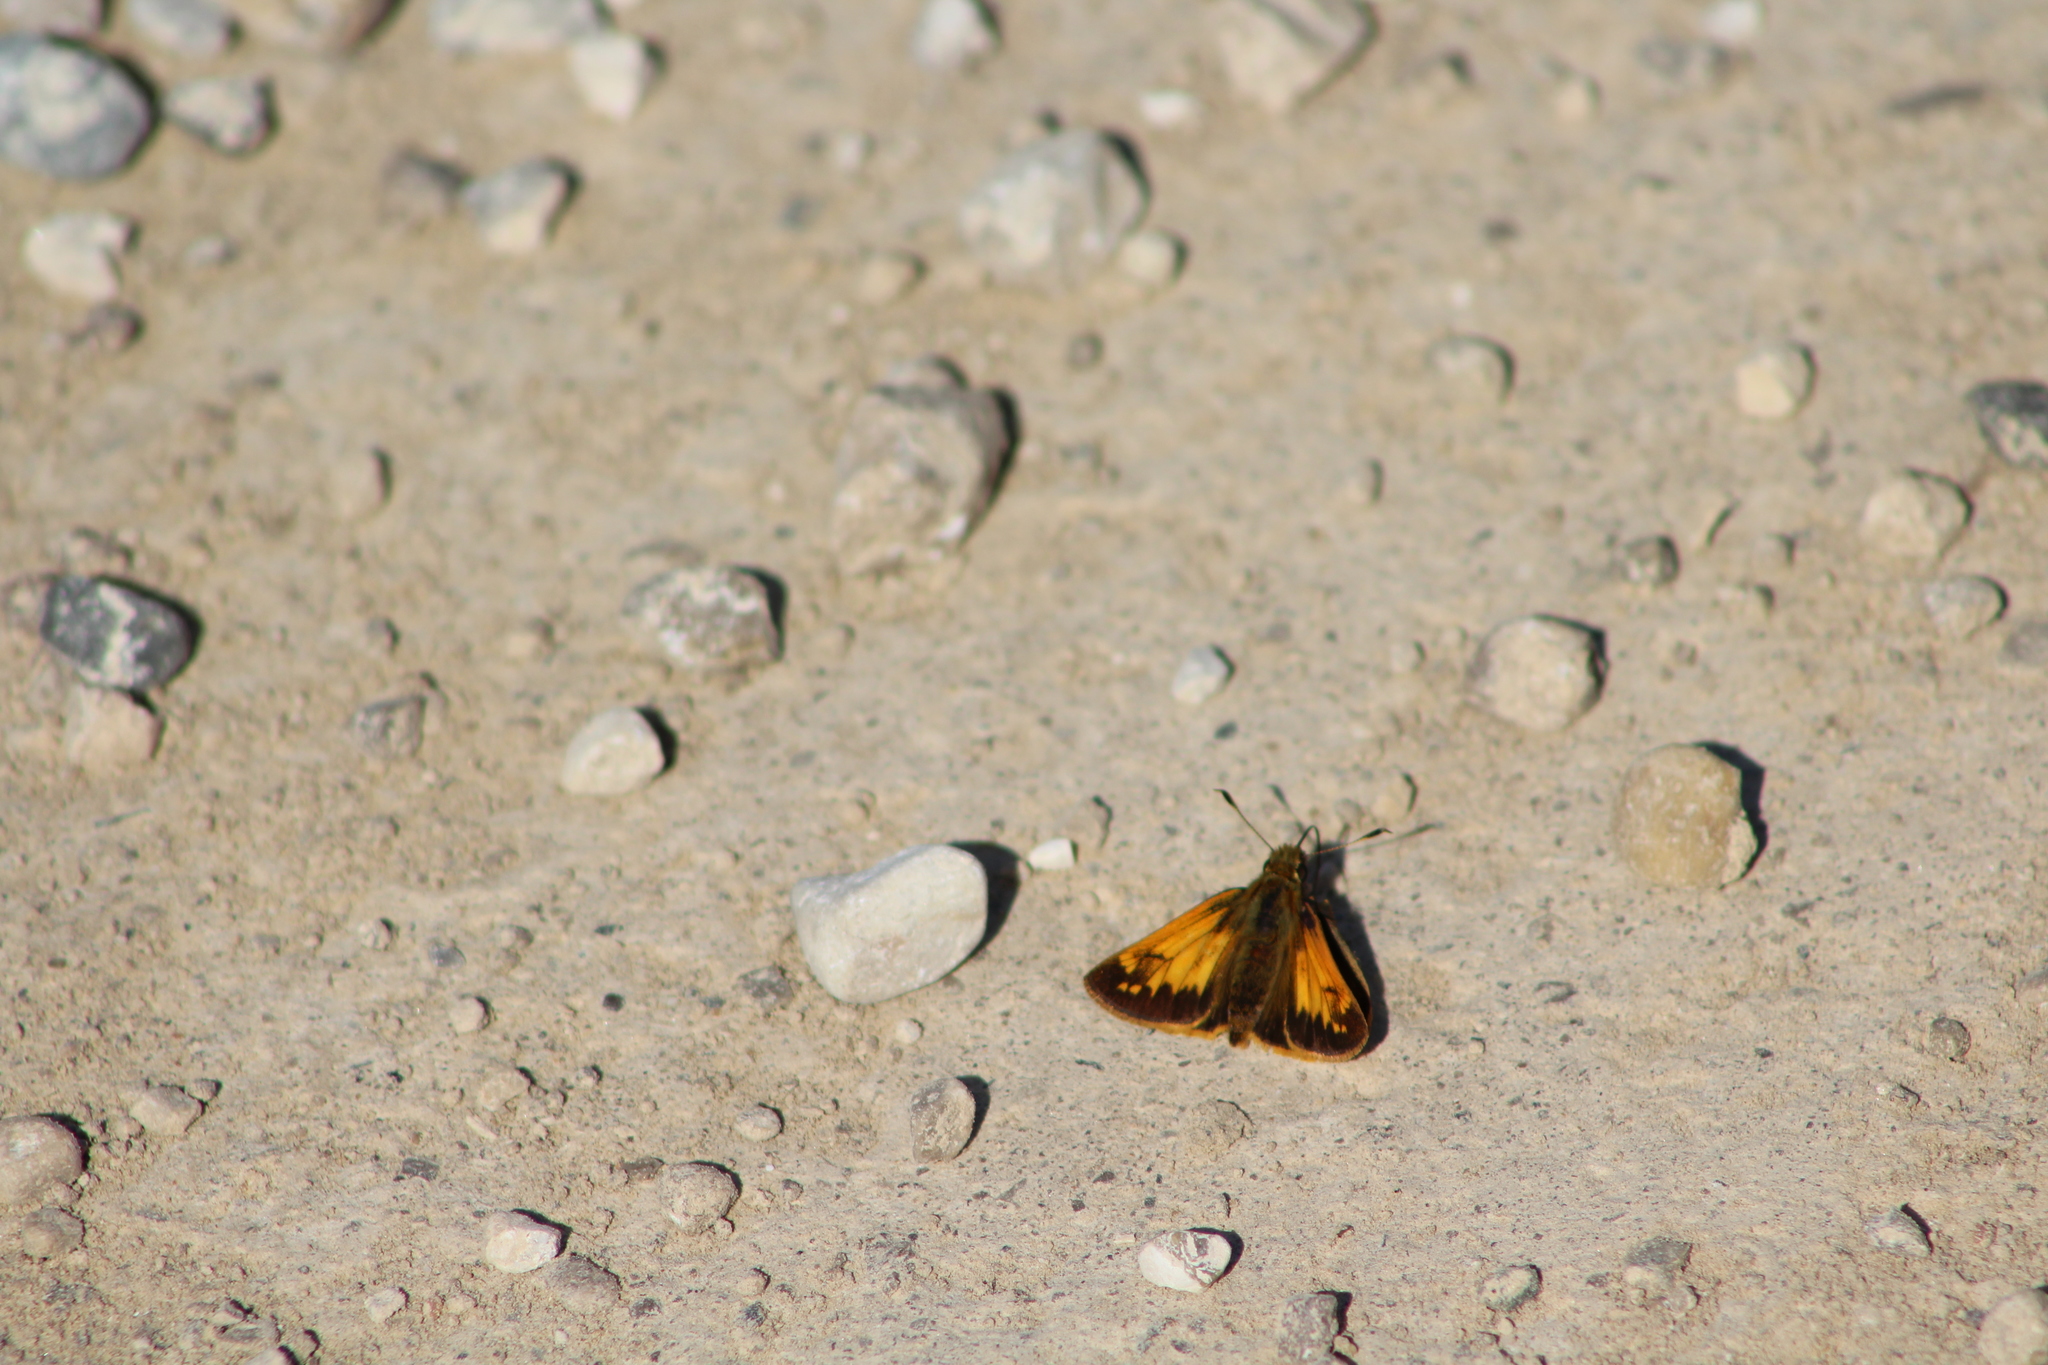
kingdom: Animalia
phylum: Arthropoda
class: Insecta
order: Lepidoptera
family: Hesperiidae
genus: Lon
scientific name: Lon hobomok
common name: Hobomok skipper
